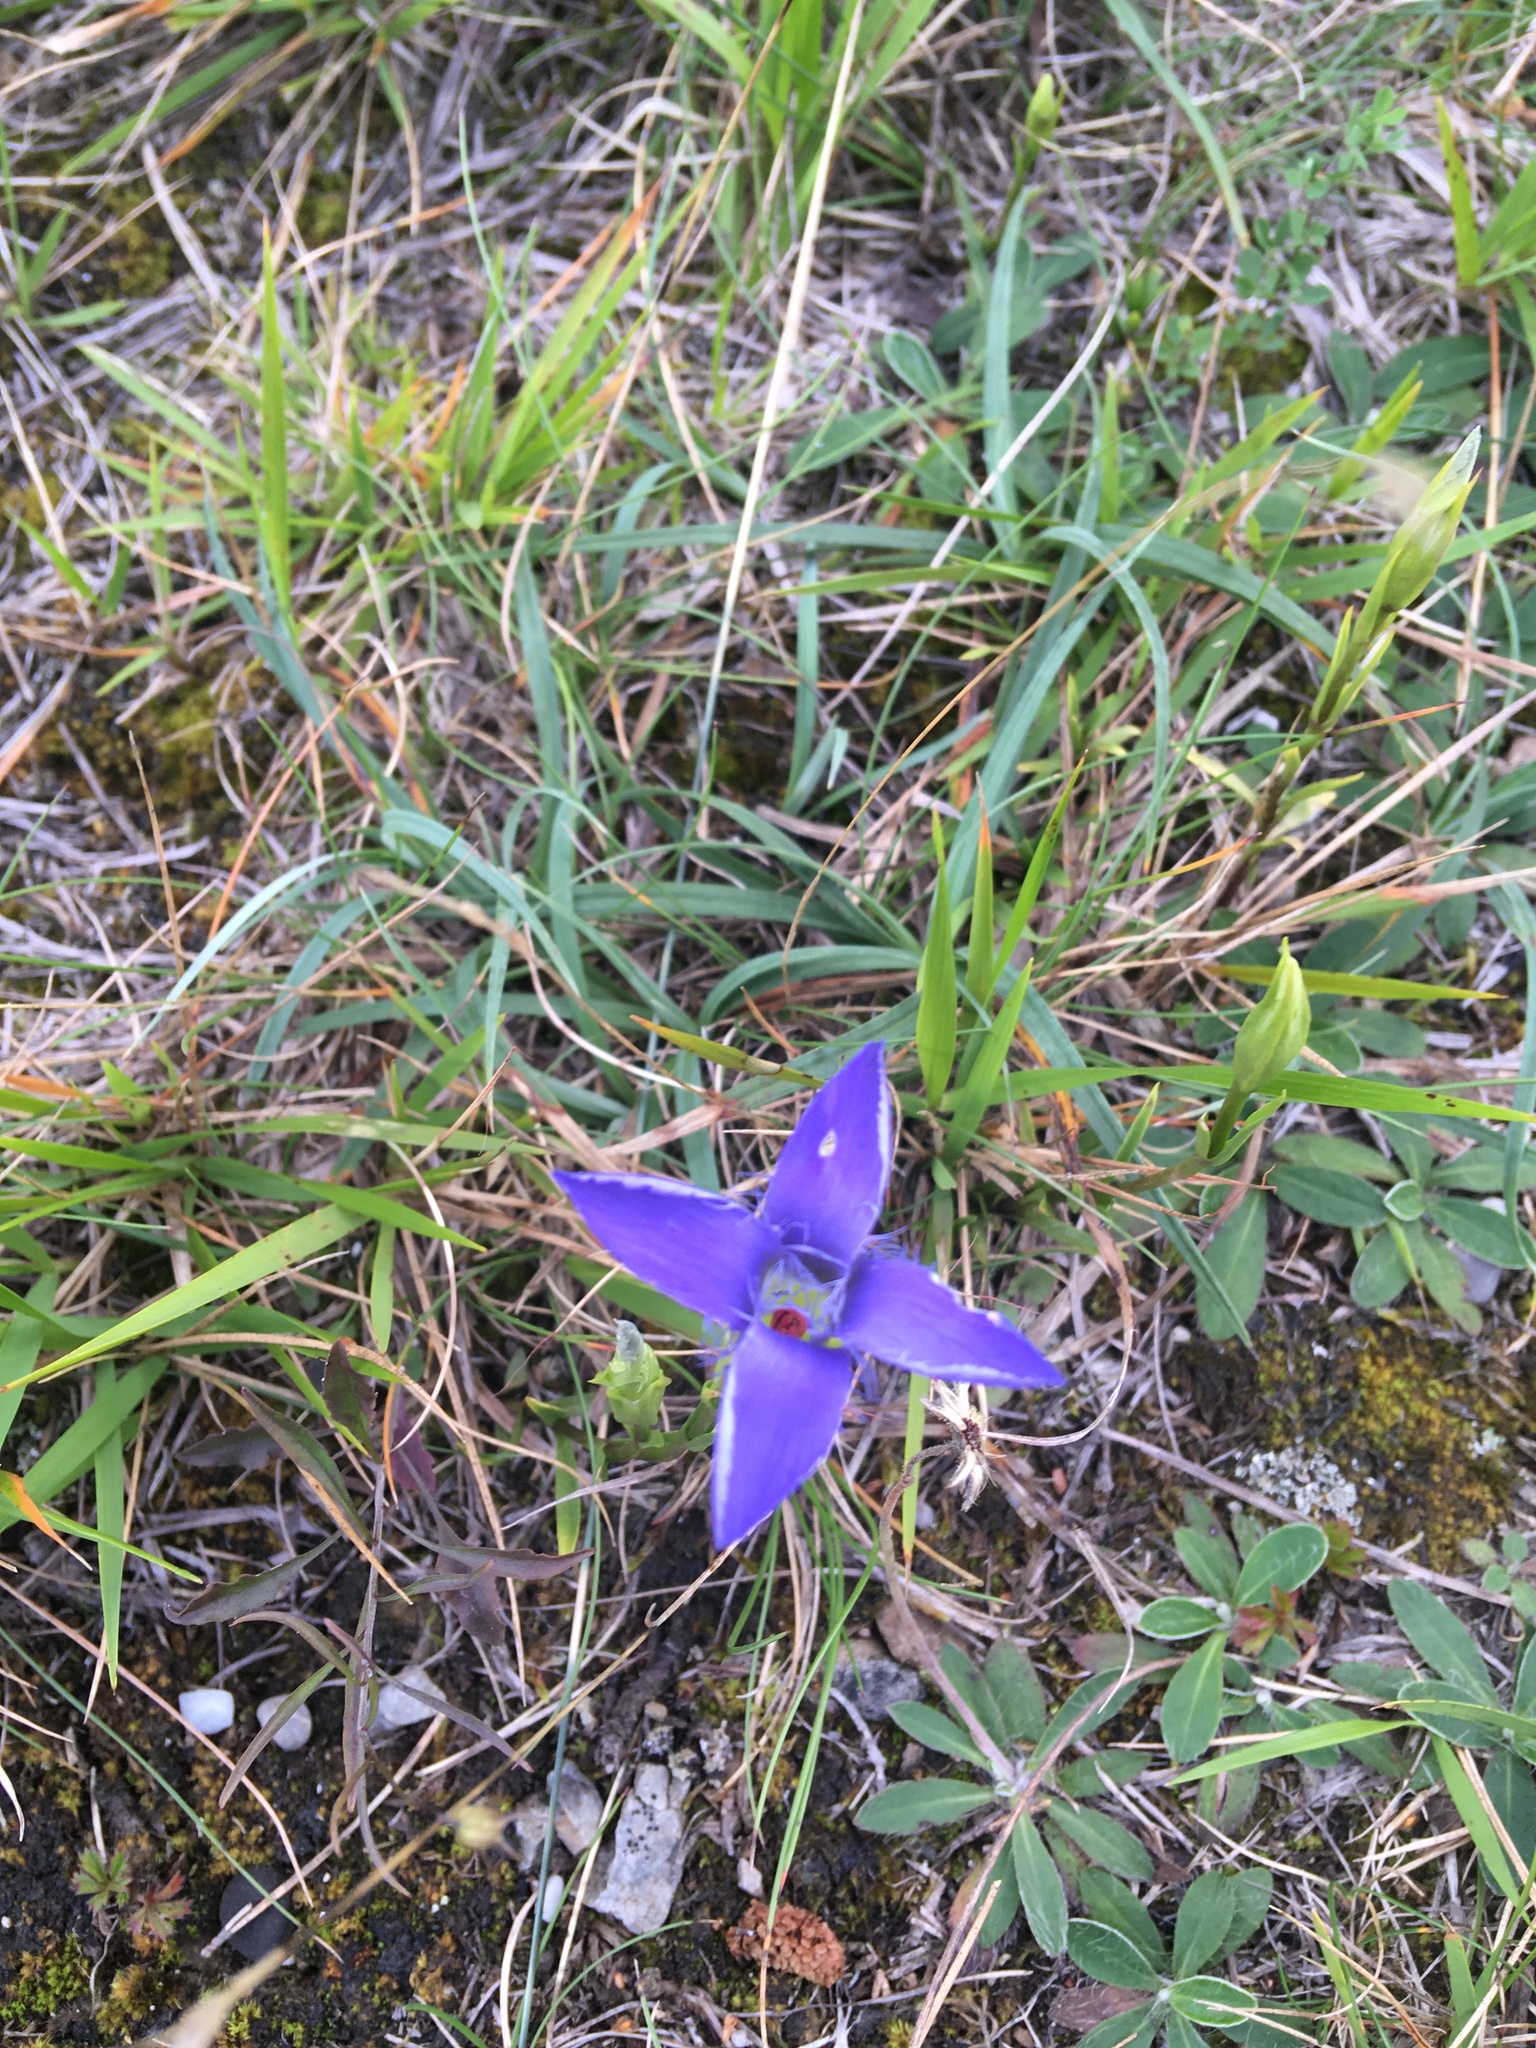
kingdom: Plantae
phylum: Tracheophyta
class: Magnoliopsida
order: Gentianales
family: Gentianaceae
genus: Gentianopsis
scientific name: Gentianopsis ciliata
